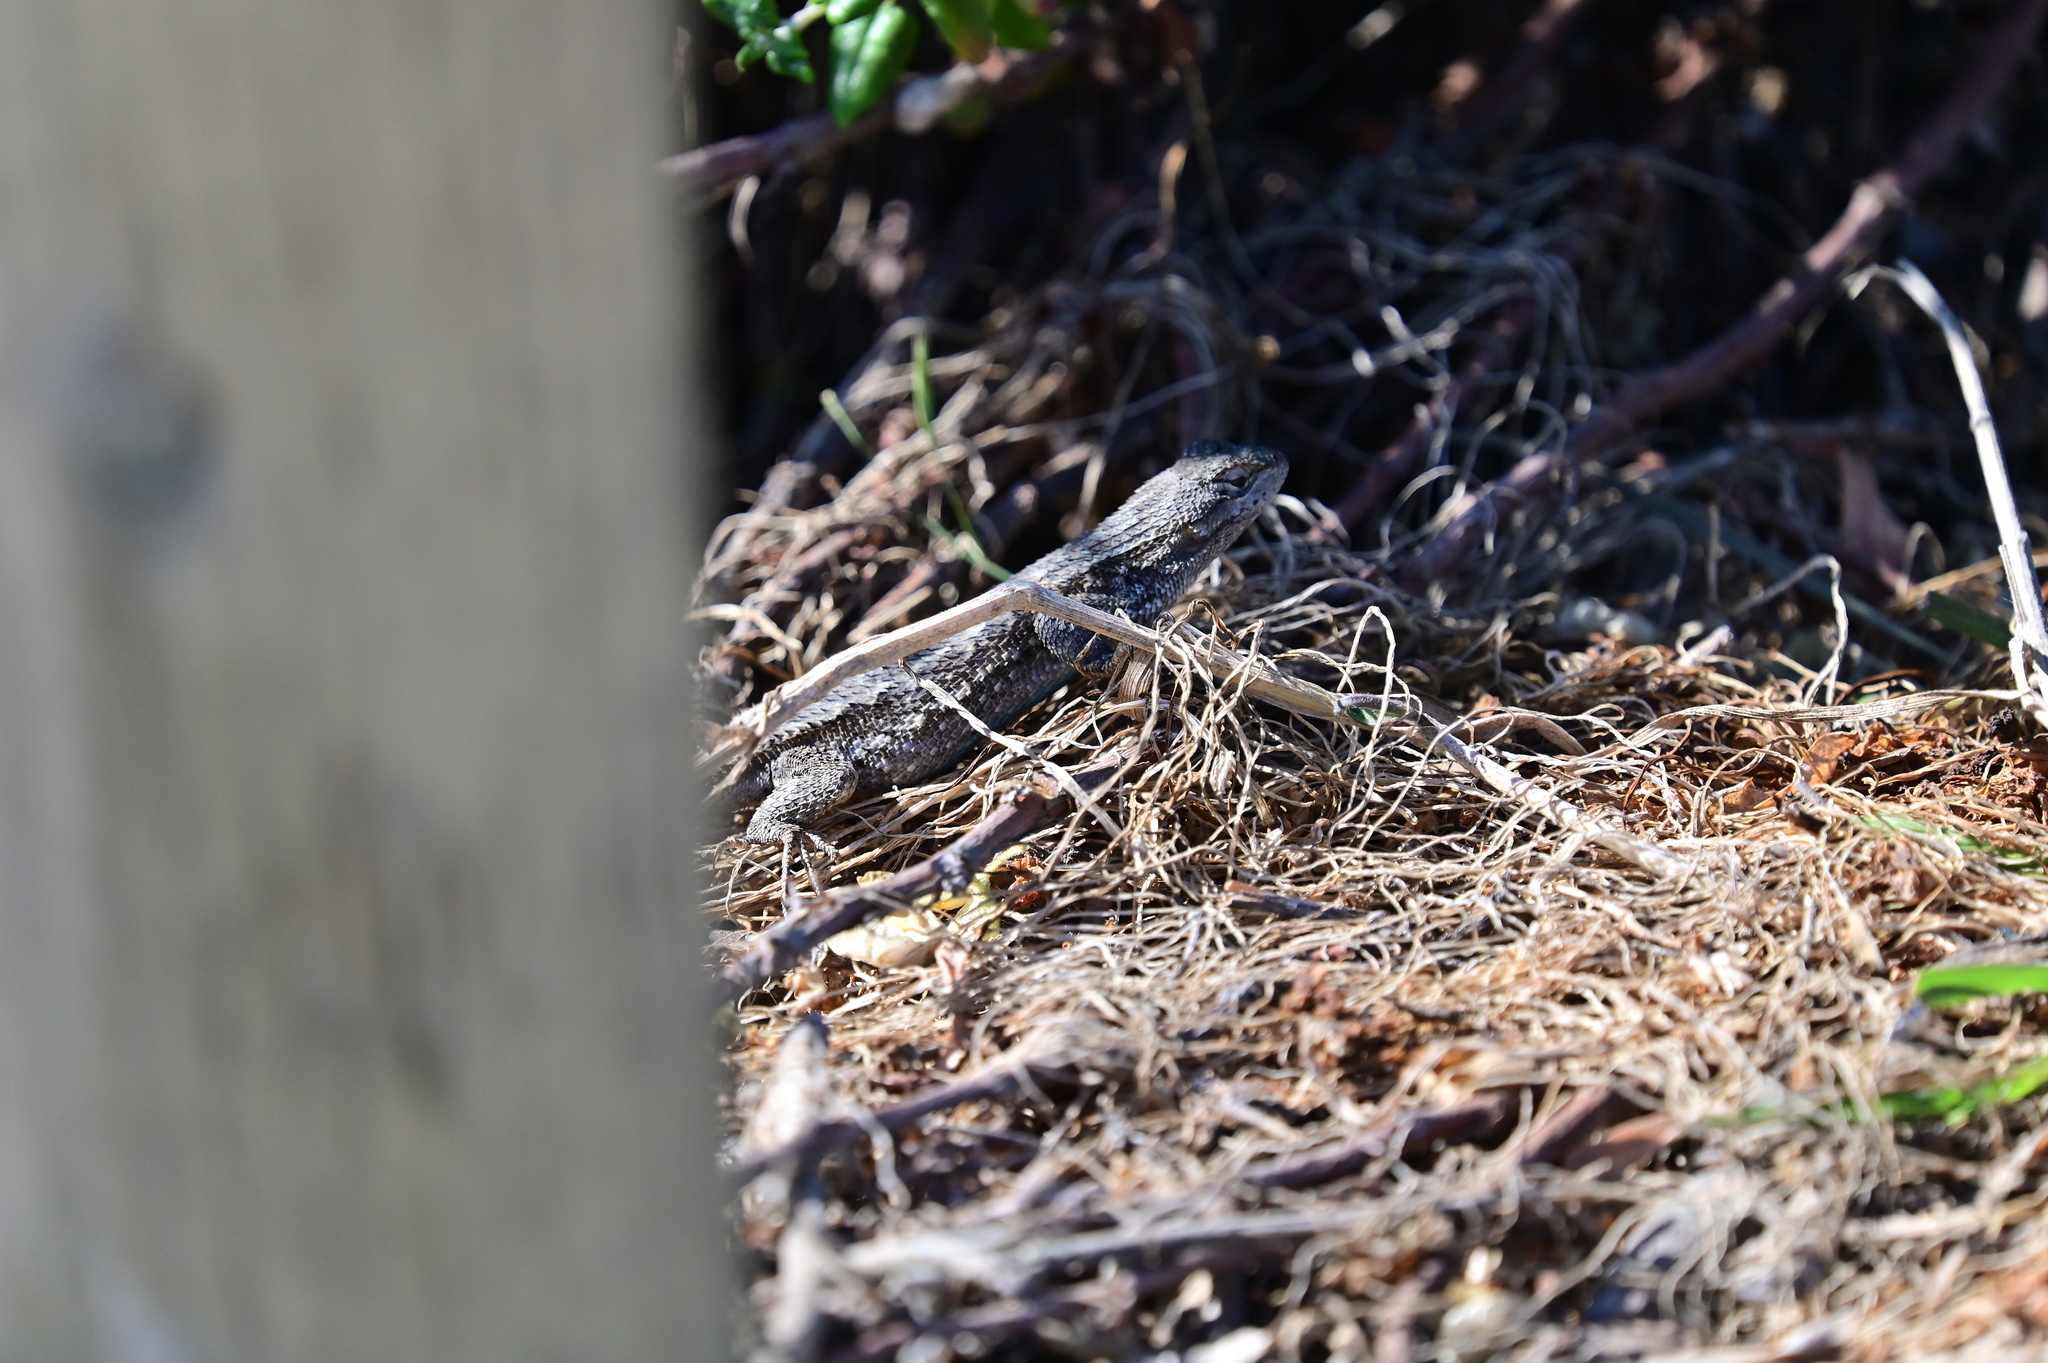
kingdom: Animalia
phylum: Chordata
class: Squamata
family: Phrynosomatidae
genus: Sceloporus
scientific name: Sceloporus occidentalis
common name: Western fence lizard
